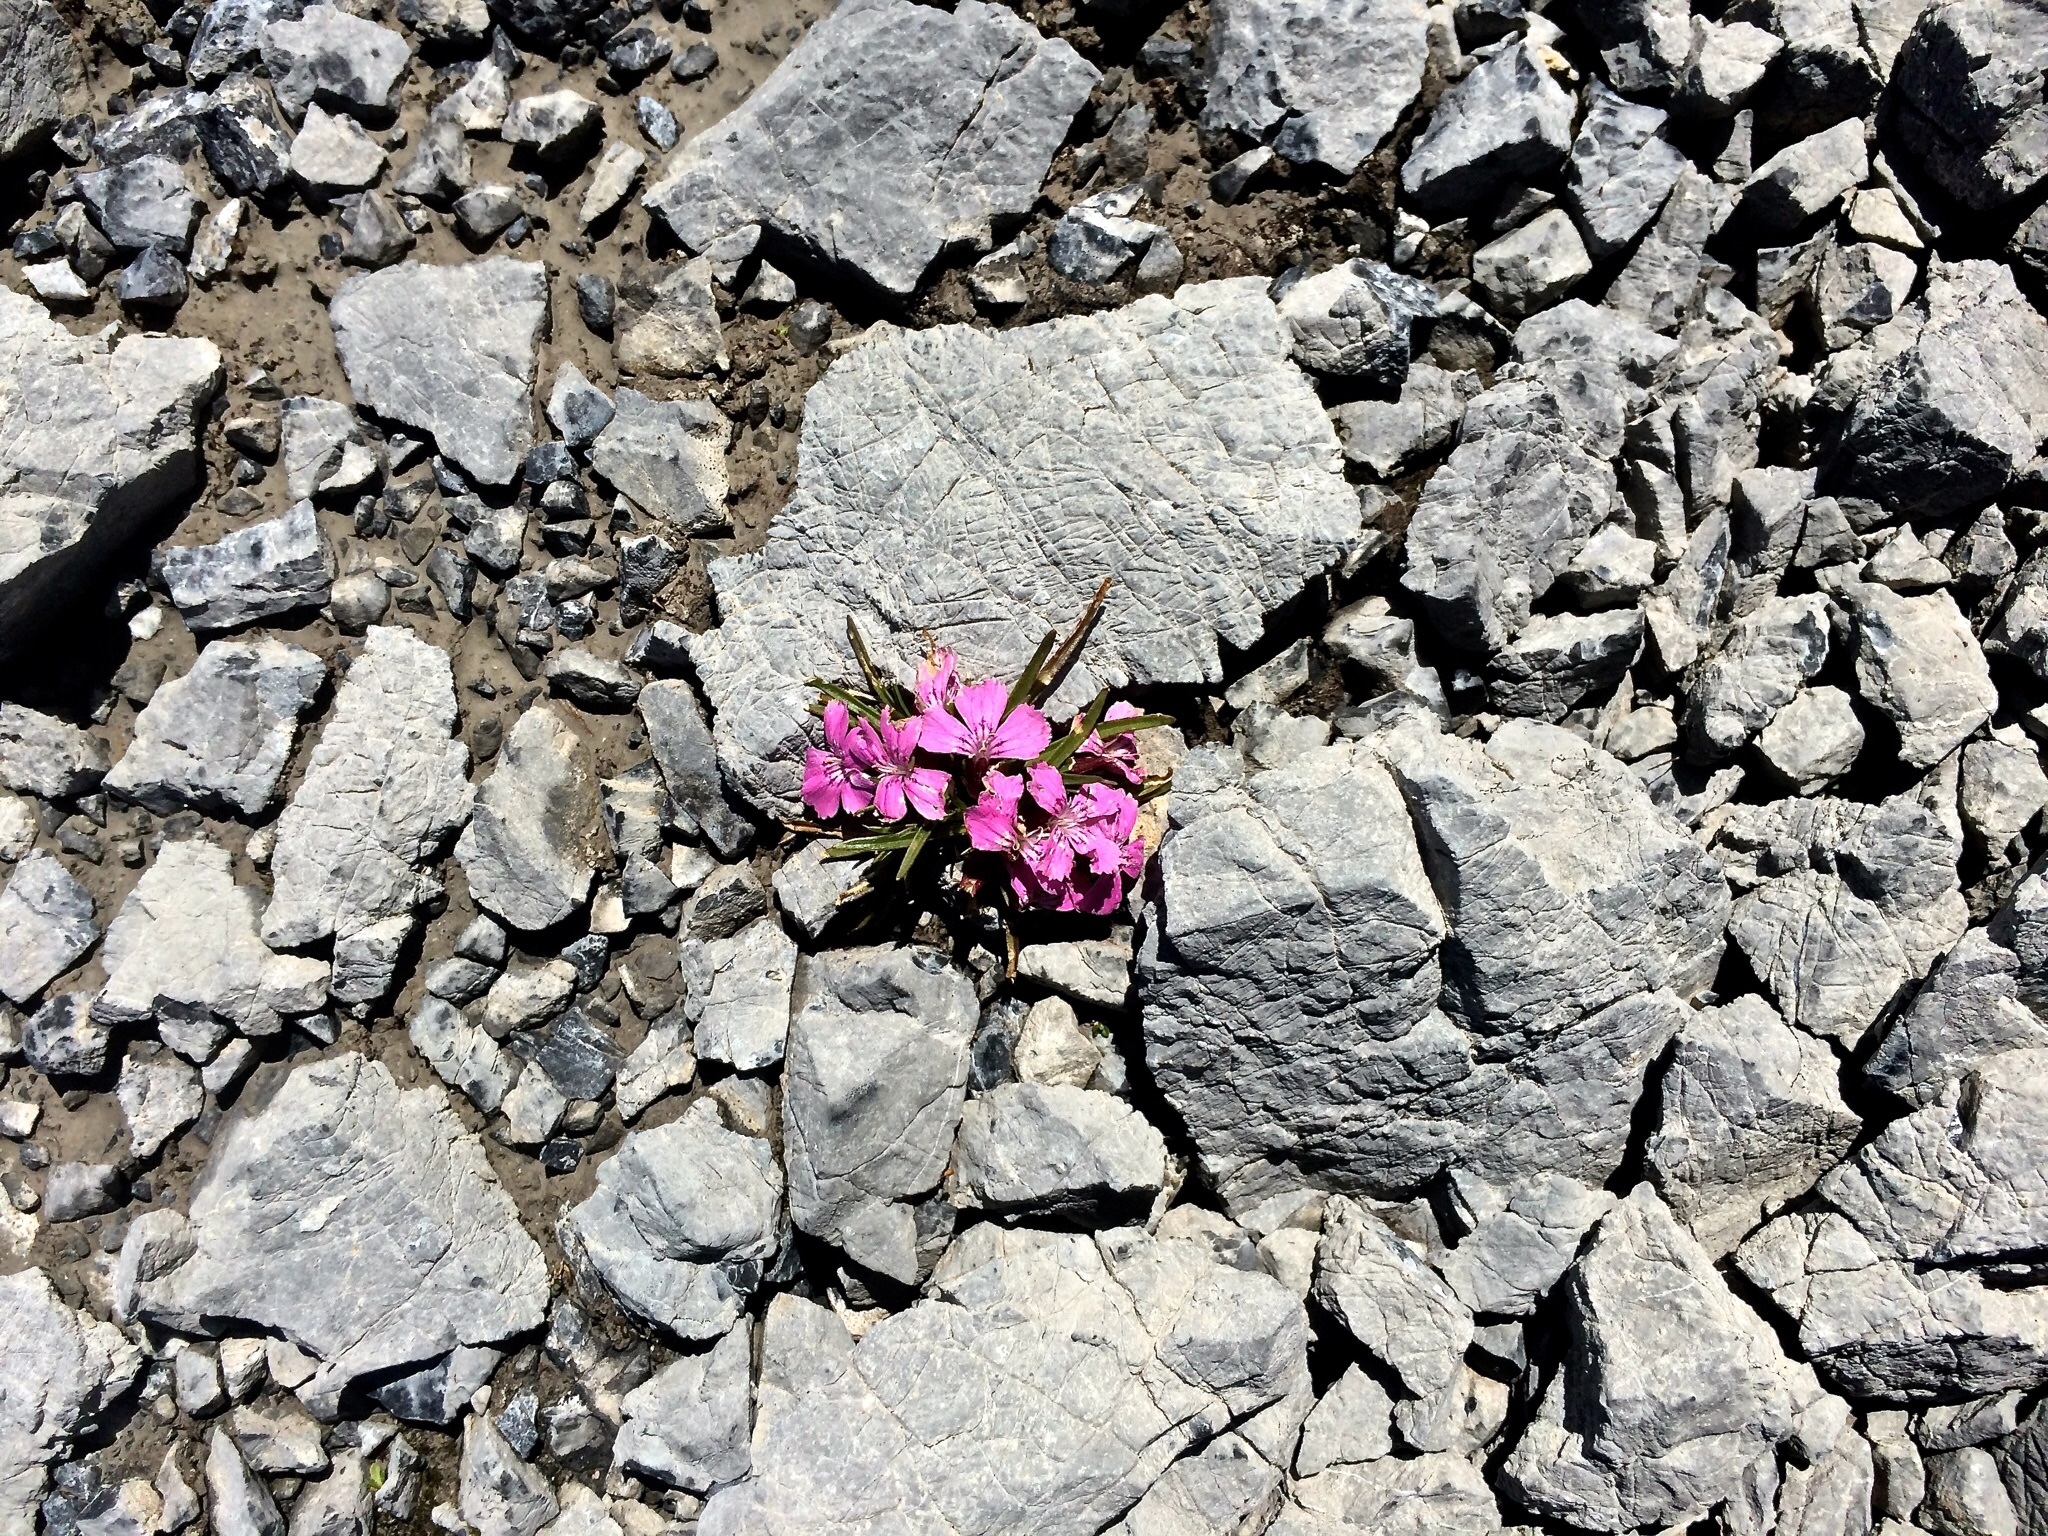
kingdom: Plantae
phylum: Tracheophyta
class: Magnoliopsida
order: Caryophyllales
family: Caryophyllaceae
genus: Dianthus
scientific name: Dianthus glacialis
